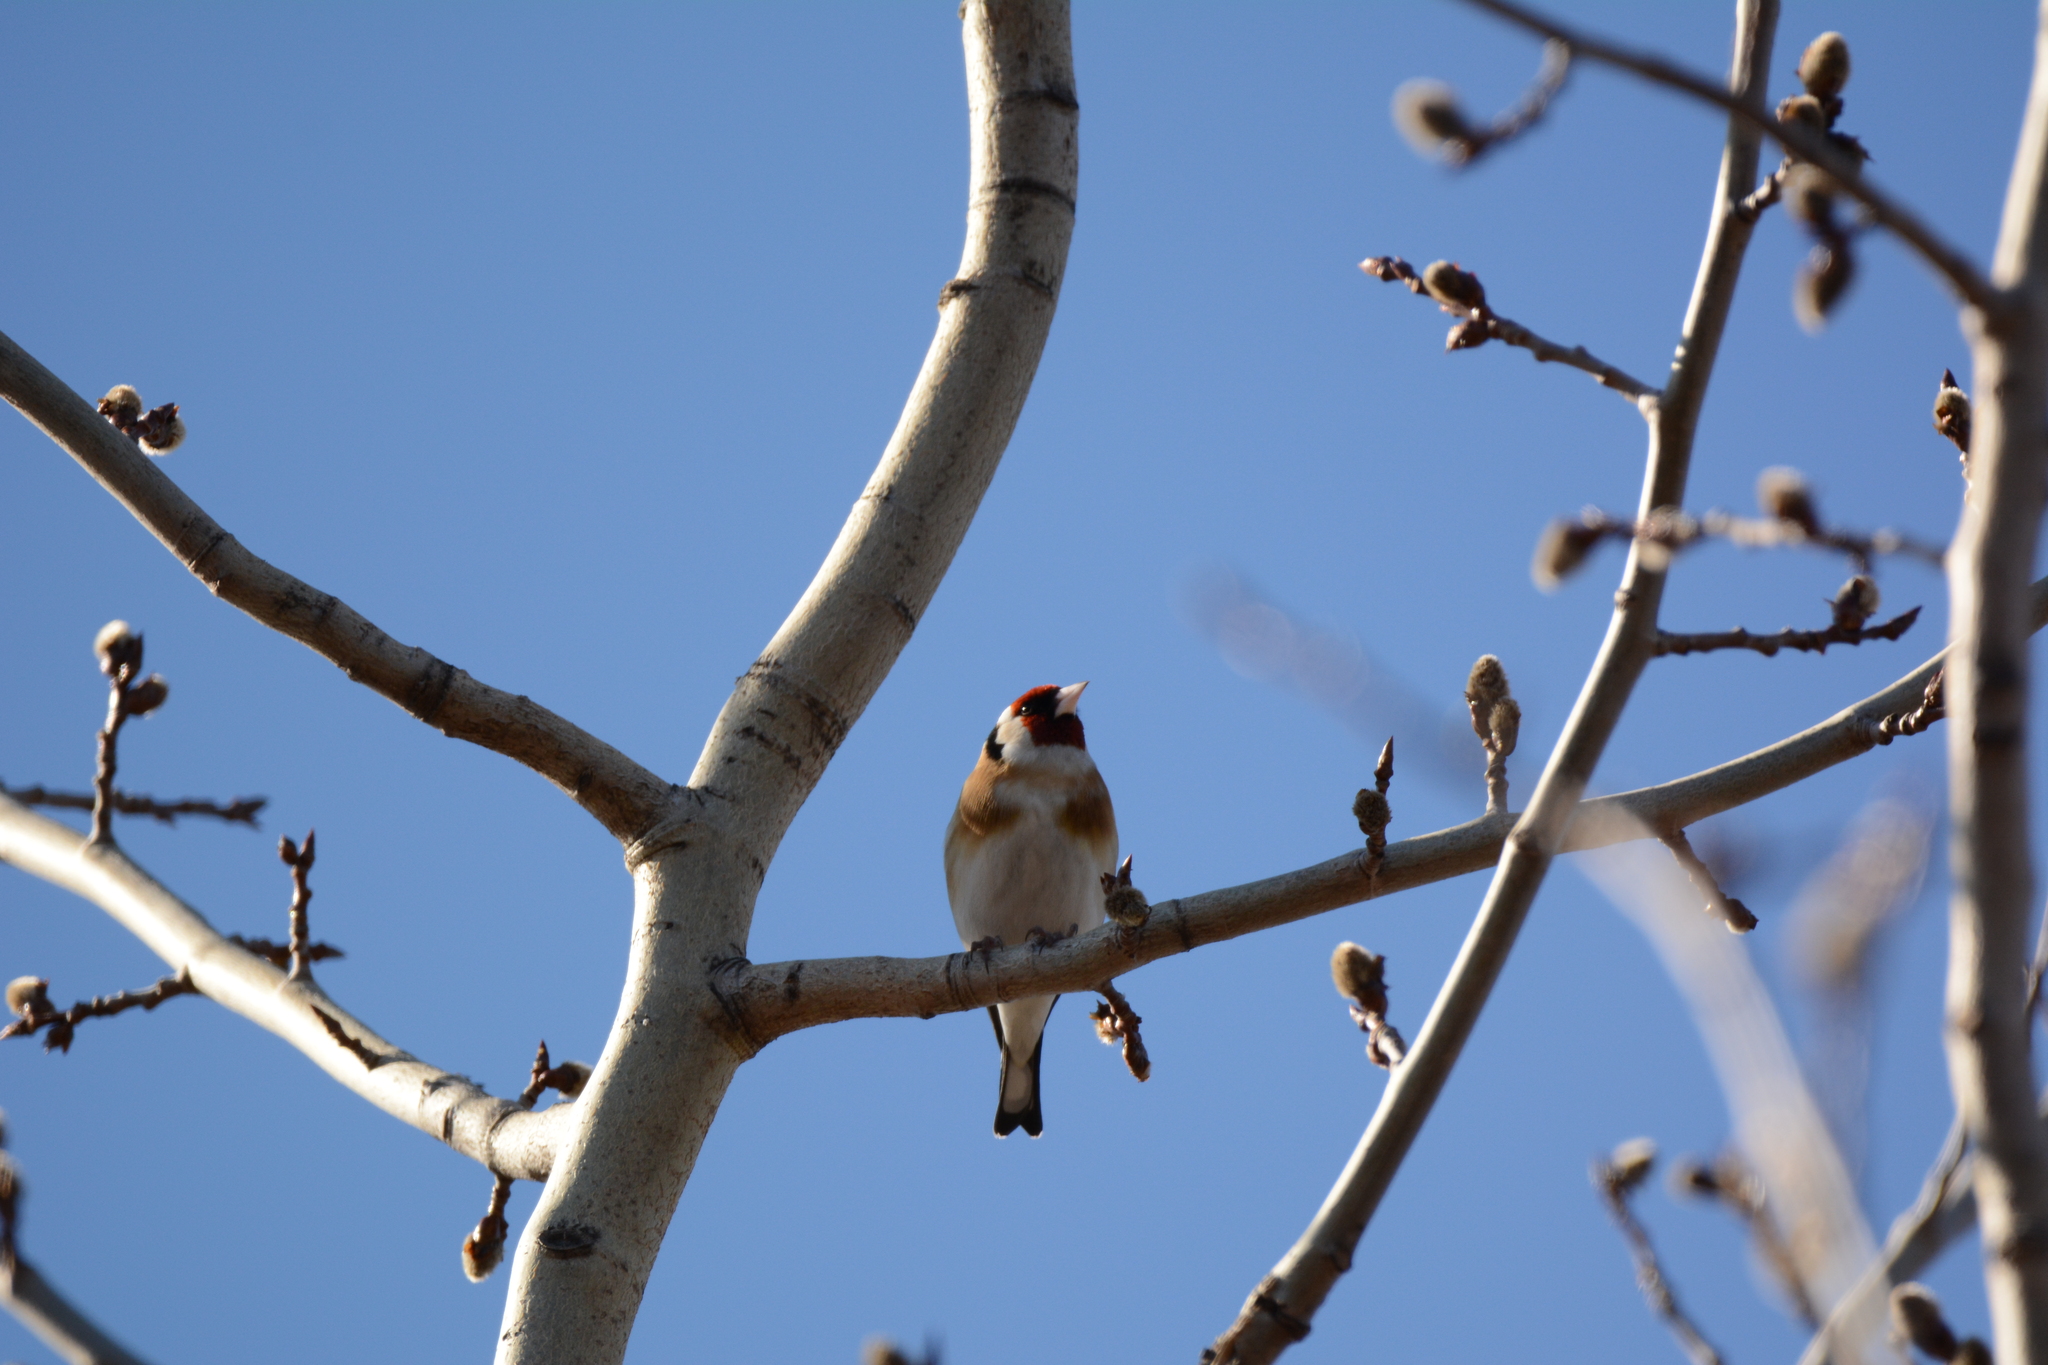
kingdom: Animalia
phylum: Chordata
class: Aves
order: Passeriformes
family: Fringillidae
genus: Carduelis
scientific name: Carduelis carduelis
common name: European goldfinch
